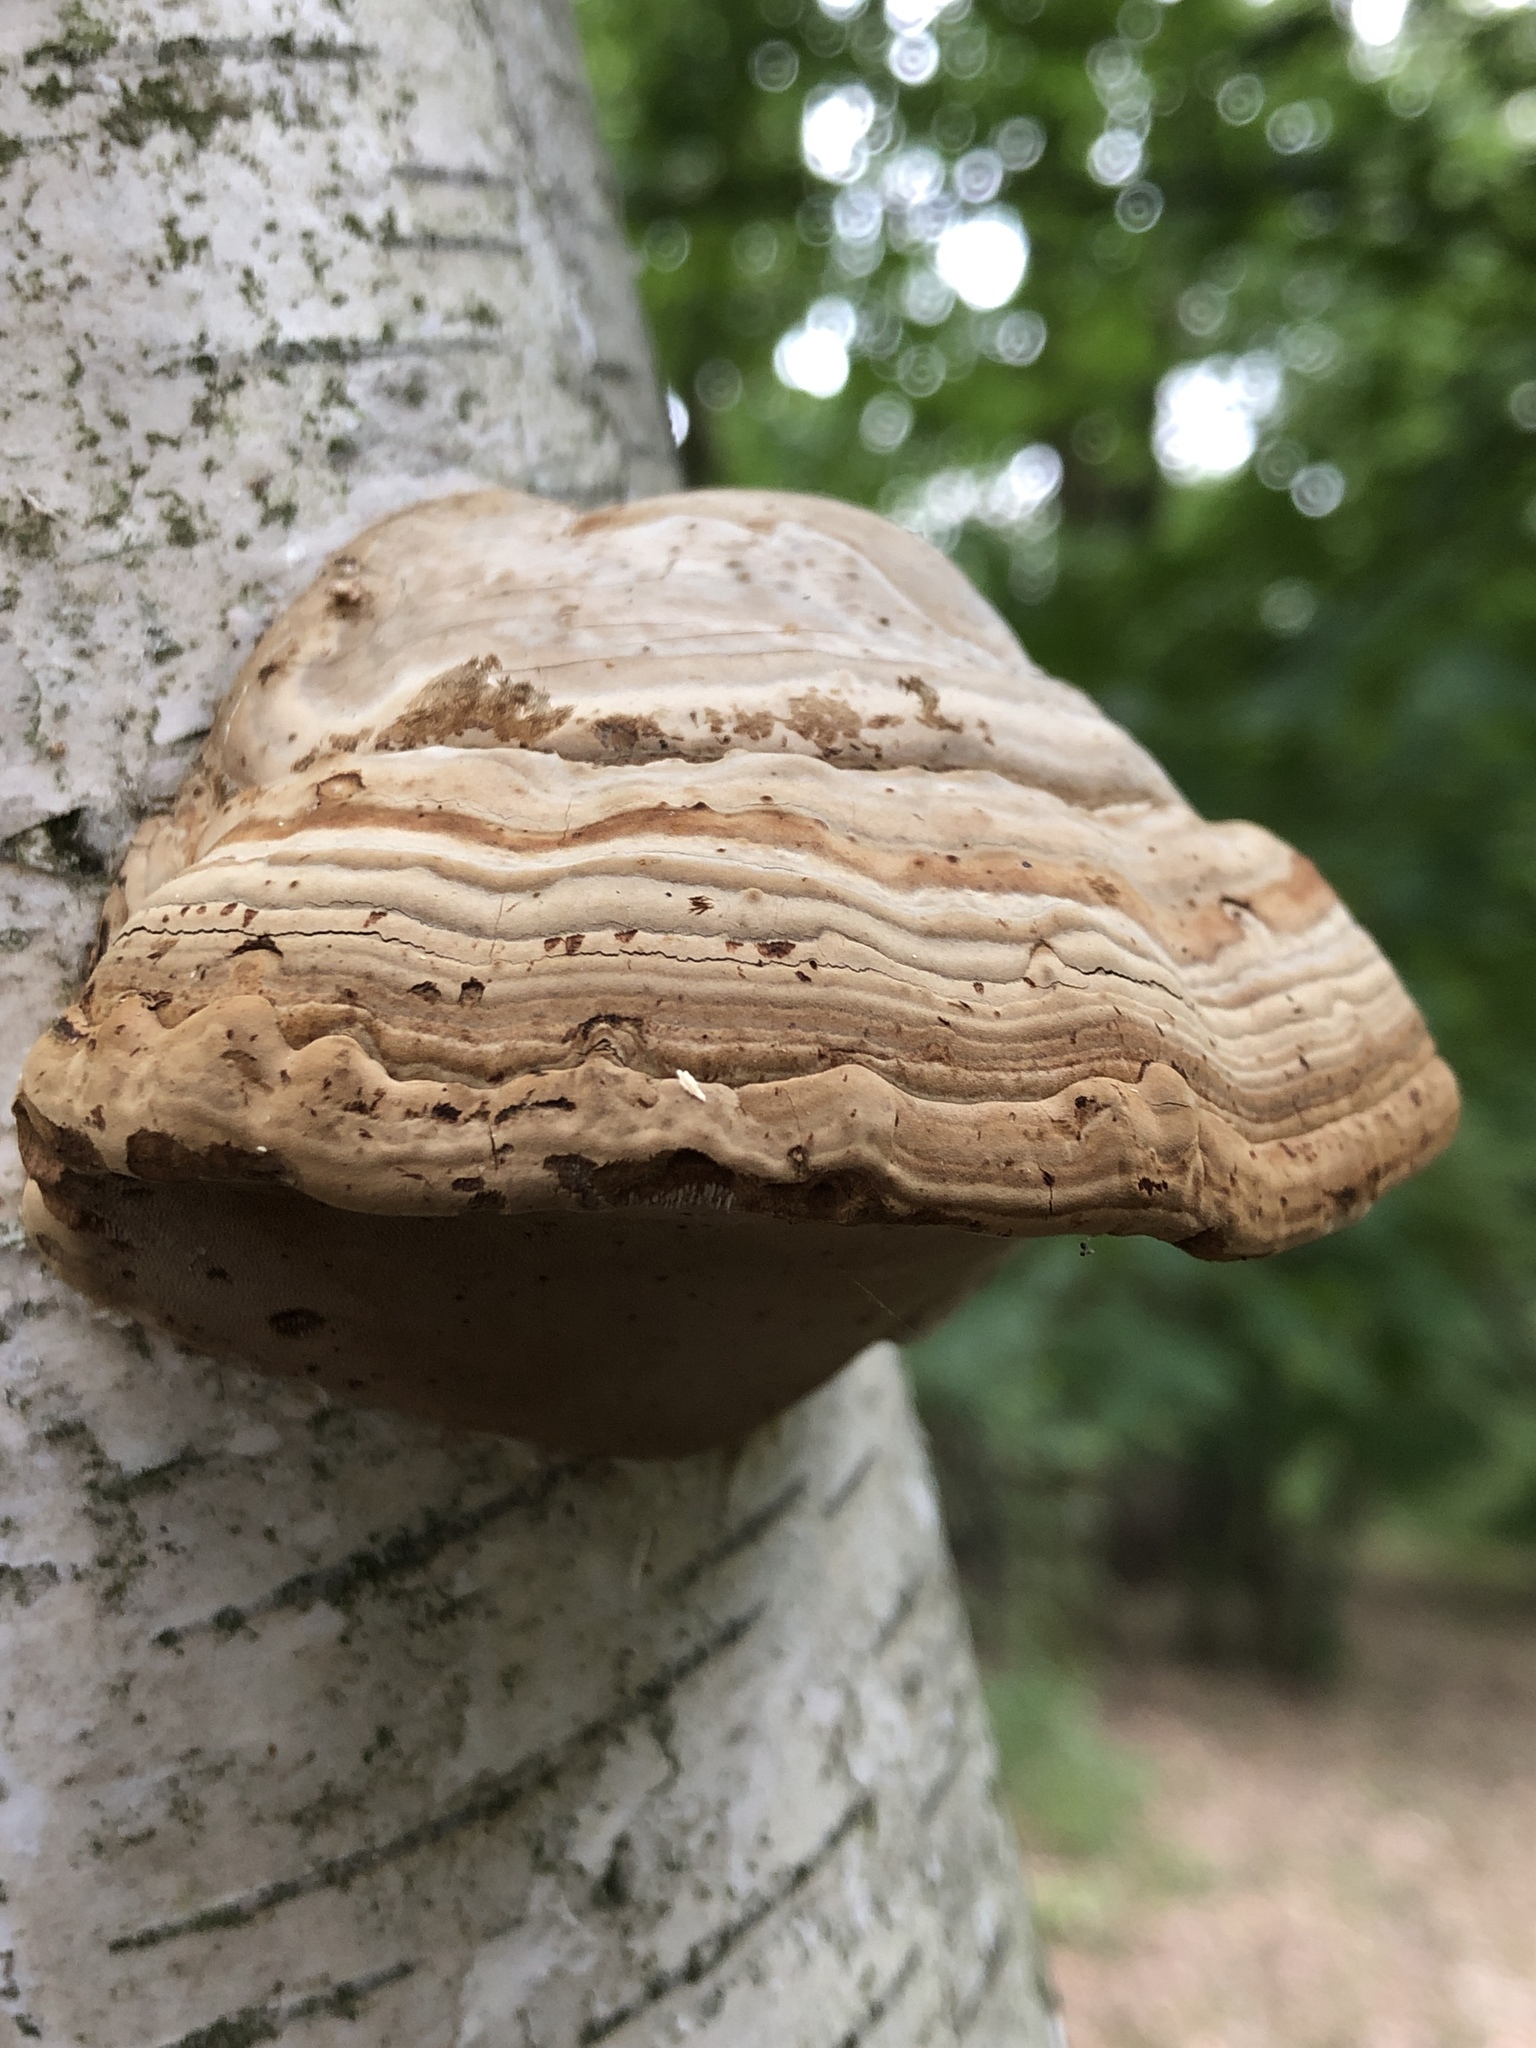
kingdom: Fungi
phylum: Basidiomycota
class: Agaricomycetes
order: Polyporales
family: Polyporaceae
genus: Fomes
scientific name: Fomes fomentarius
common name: Hoof fungus
